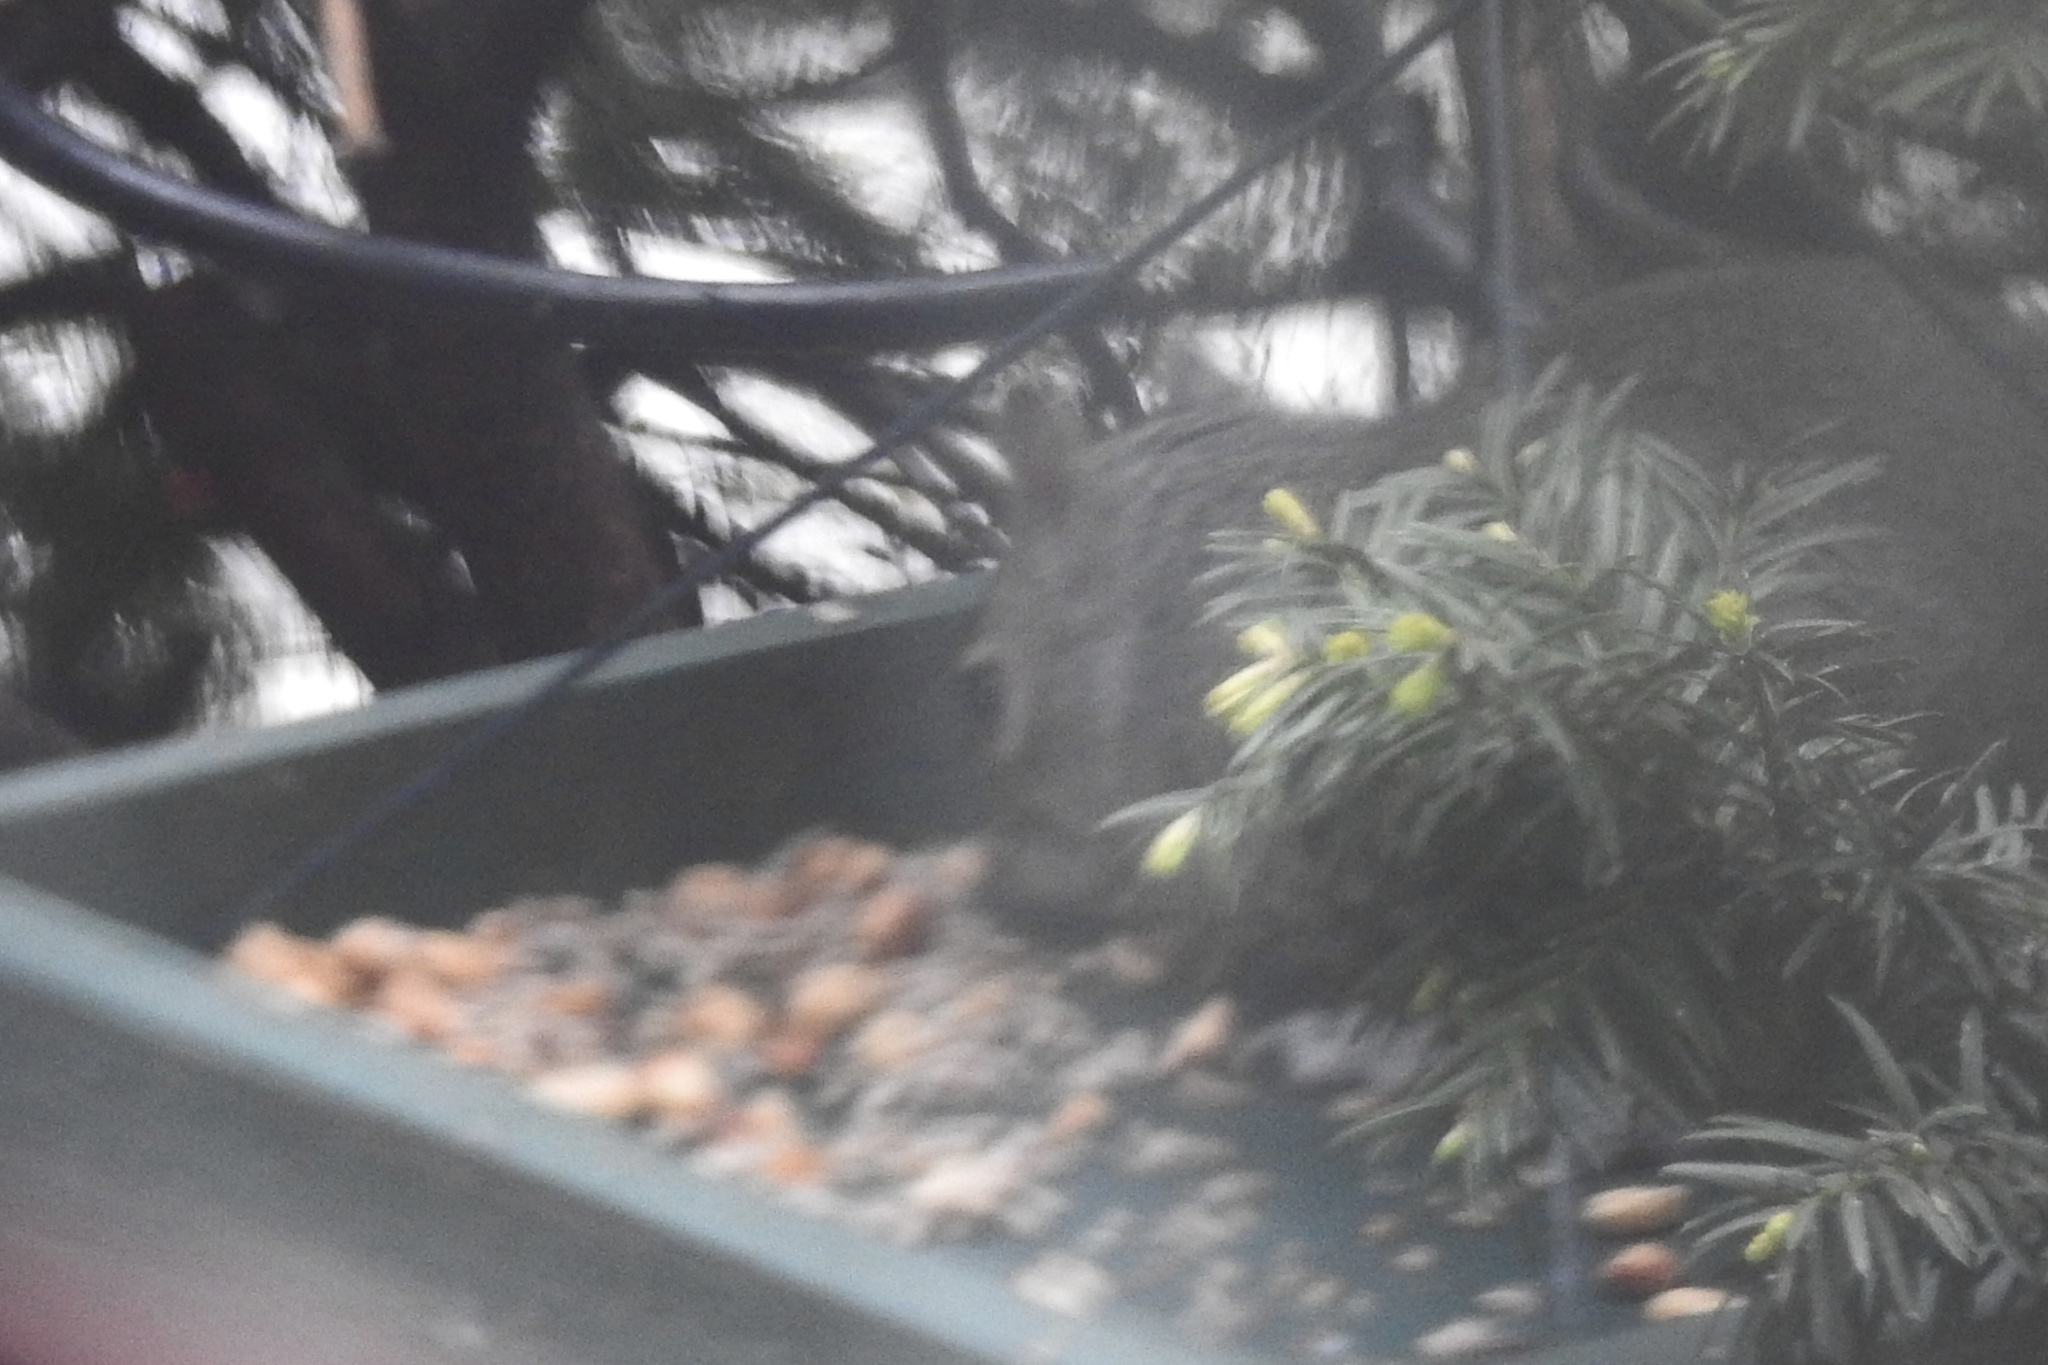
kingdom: Animalia
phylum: Chordata
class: Mammalia
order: Rodentia
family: Sciuridae
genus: Sciurus
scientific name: Sciurus carolinensis
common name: Eastern gray squirrel
